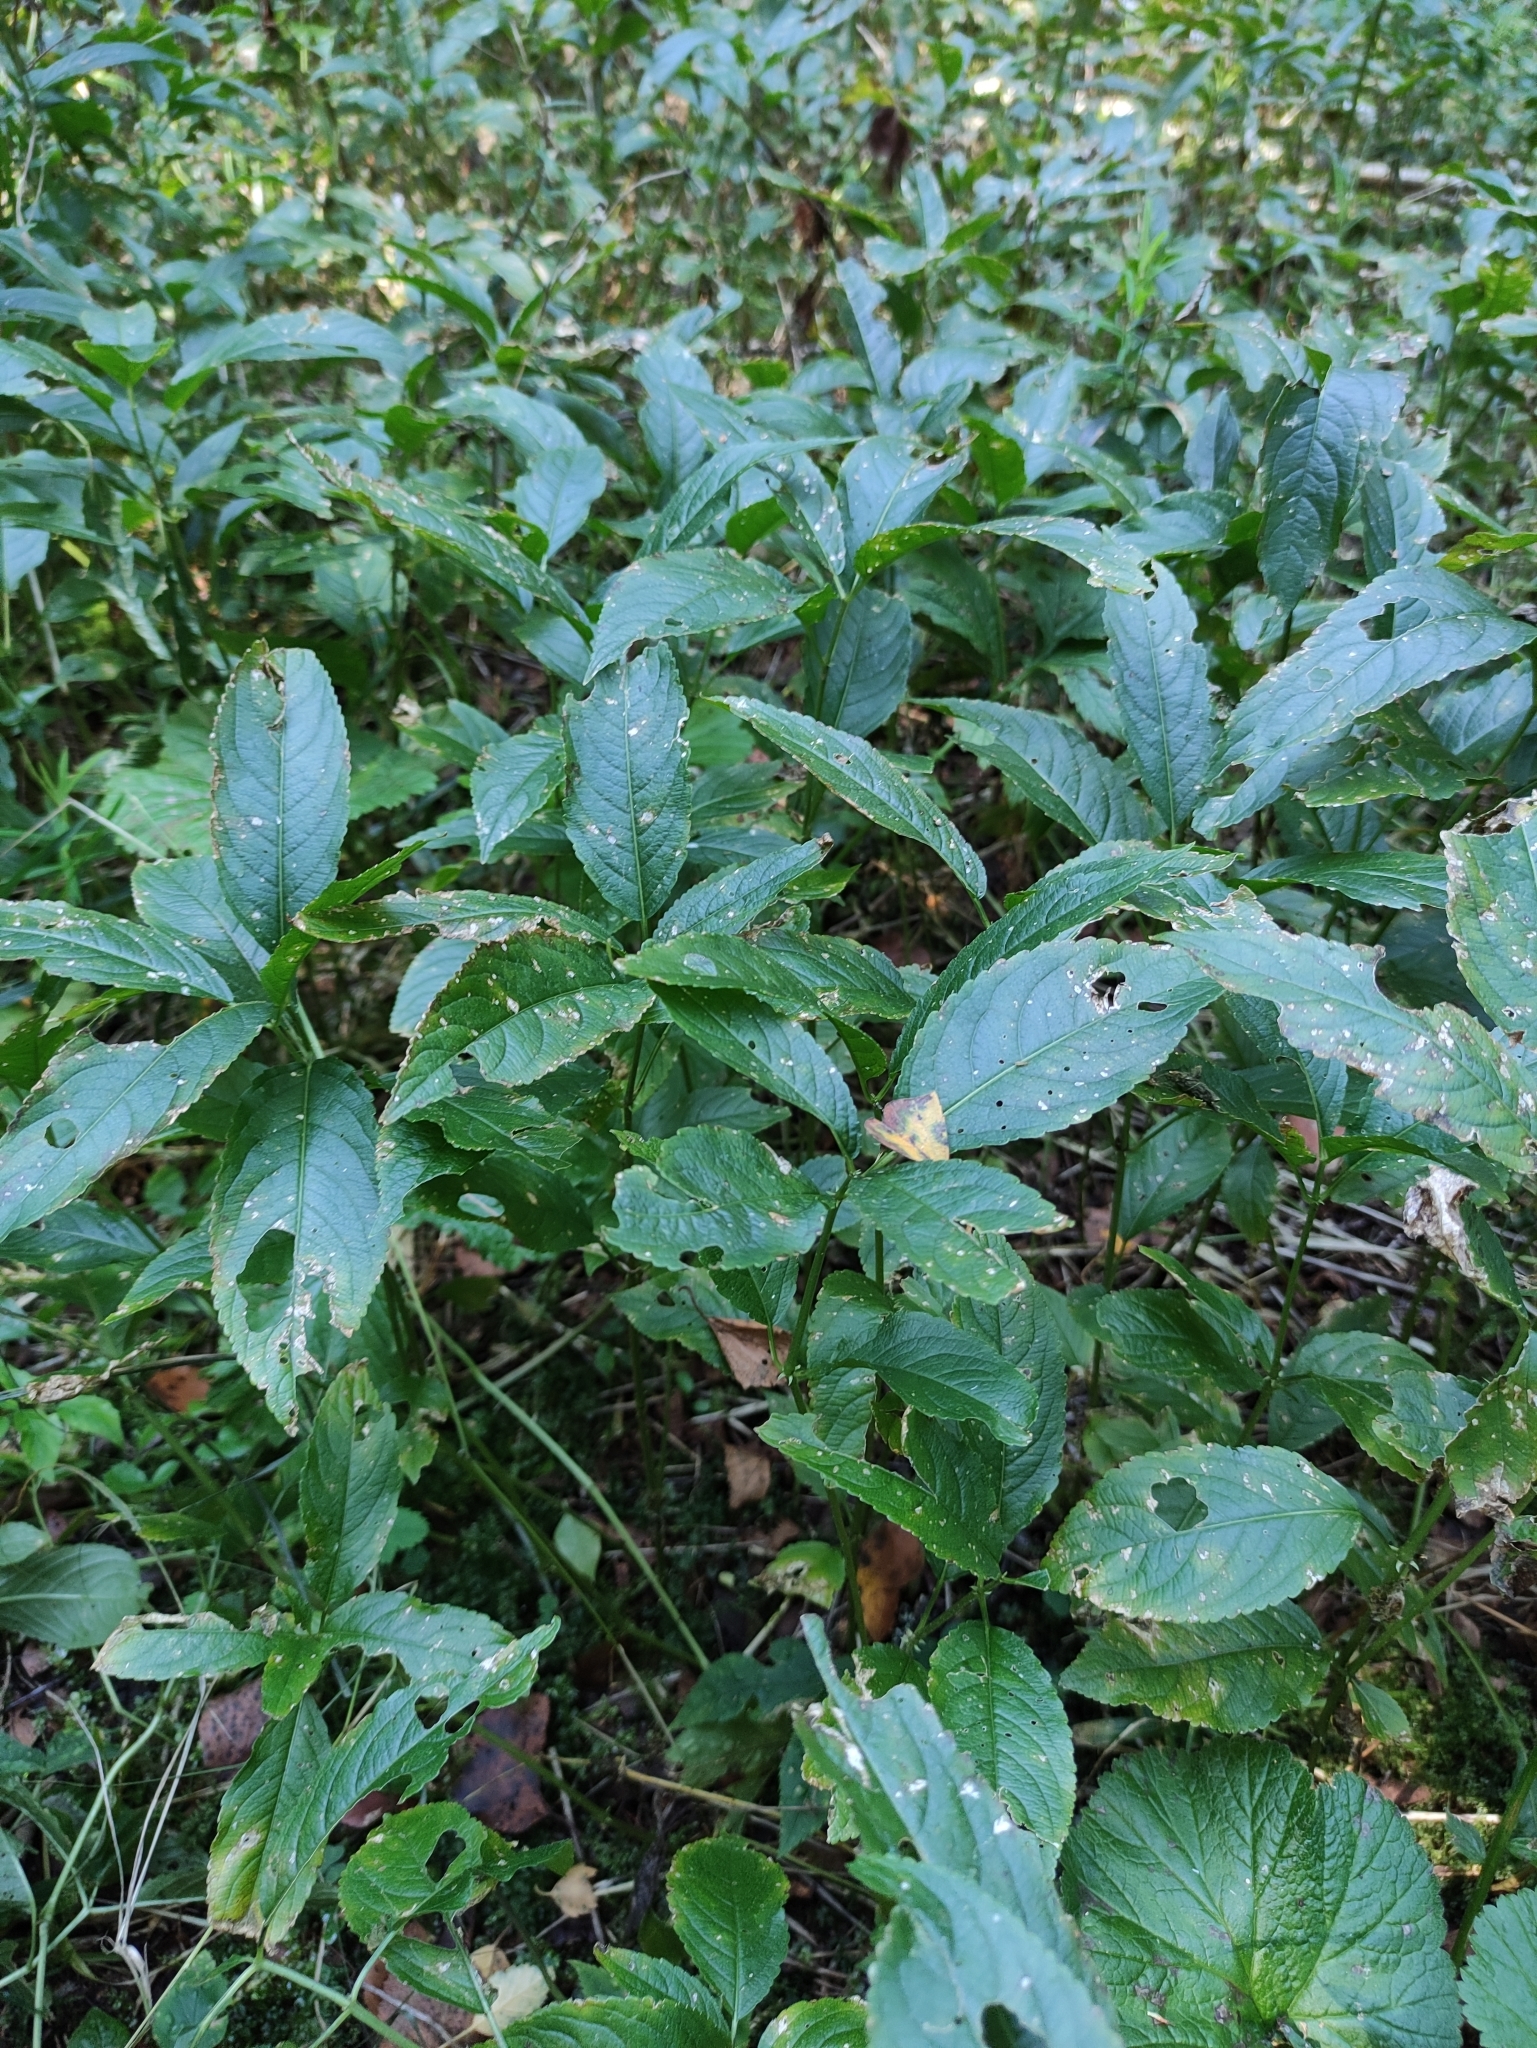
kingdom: Plantae
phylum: Tracheophyta
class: Magnoliopsida
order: Malpighiales
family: Euphorbiaceae
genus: Mercurialis
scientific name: Mercurialis perennis
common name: Dog mercury
